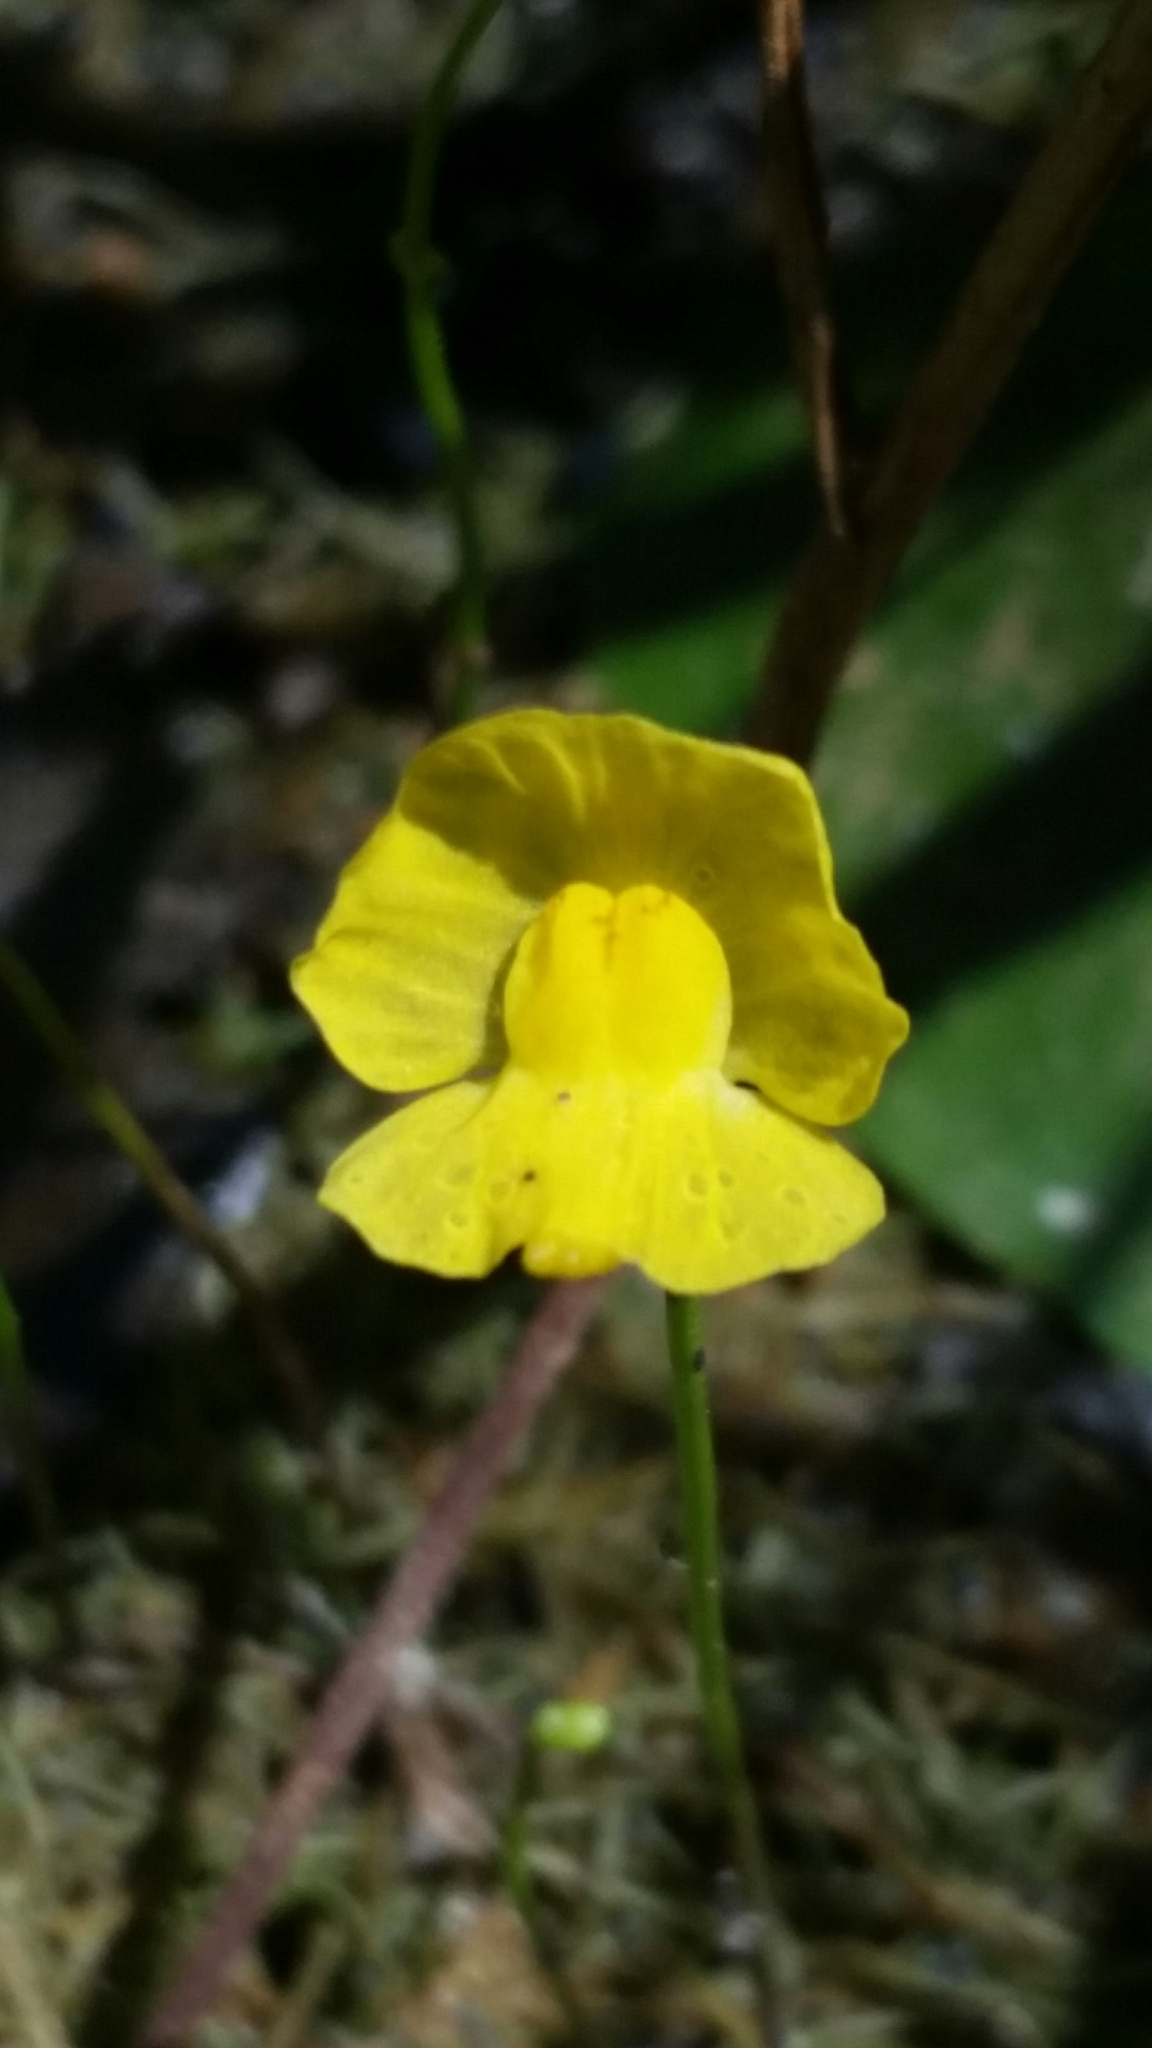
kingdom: Plantae
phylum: Tracheophyta
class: Magnoliopsida
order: Lamiales
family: Lentibulariaceae
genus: Utricularia
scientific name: Utricularia gibba
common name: Humped bladderwort
